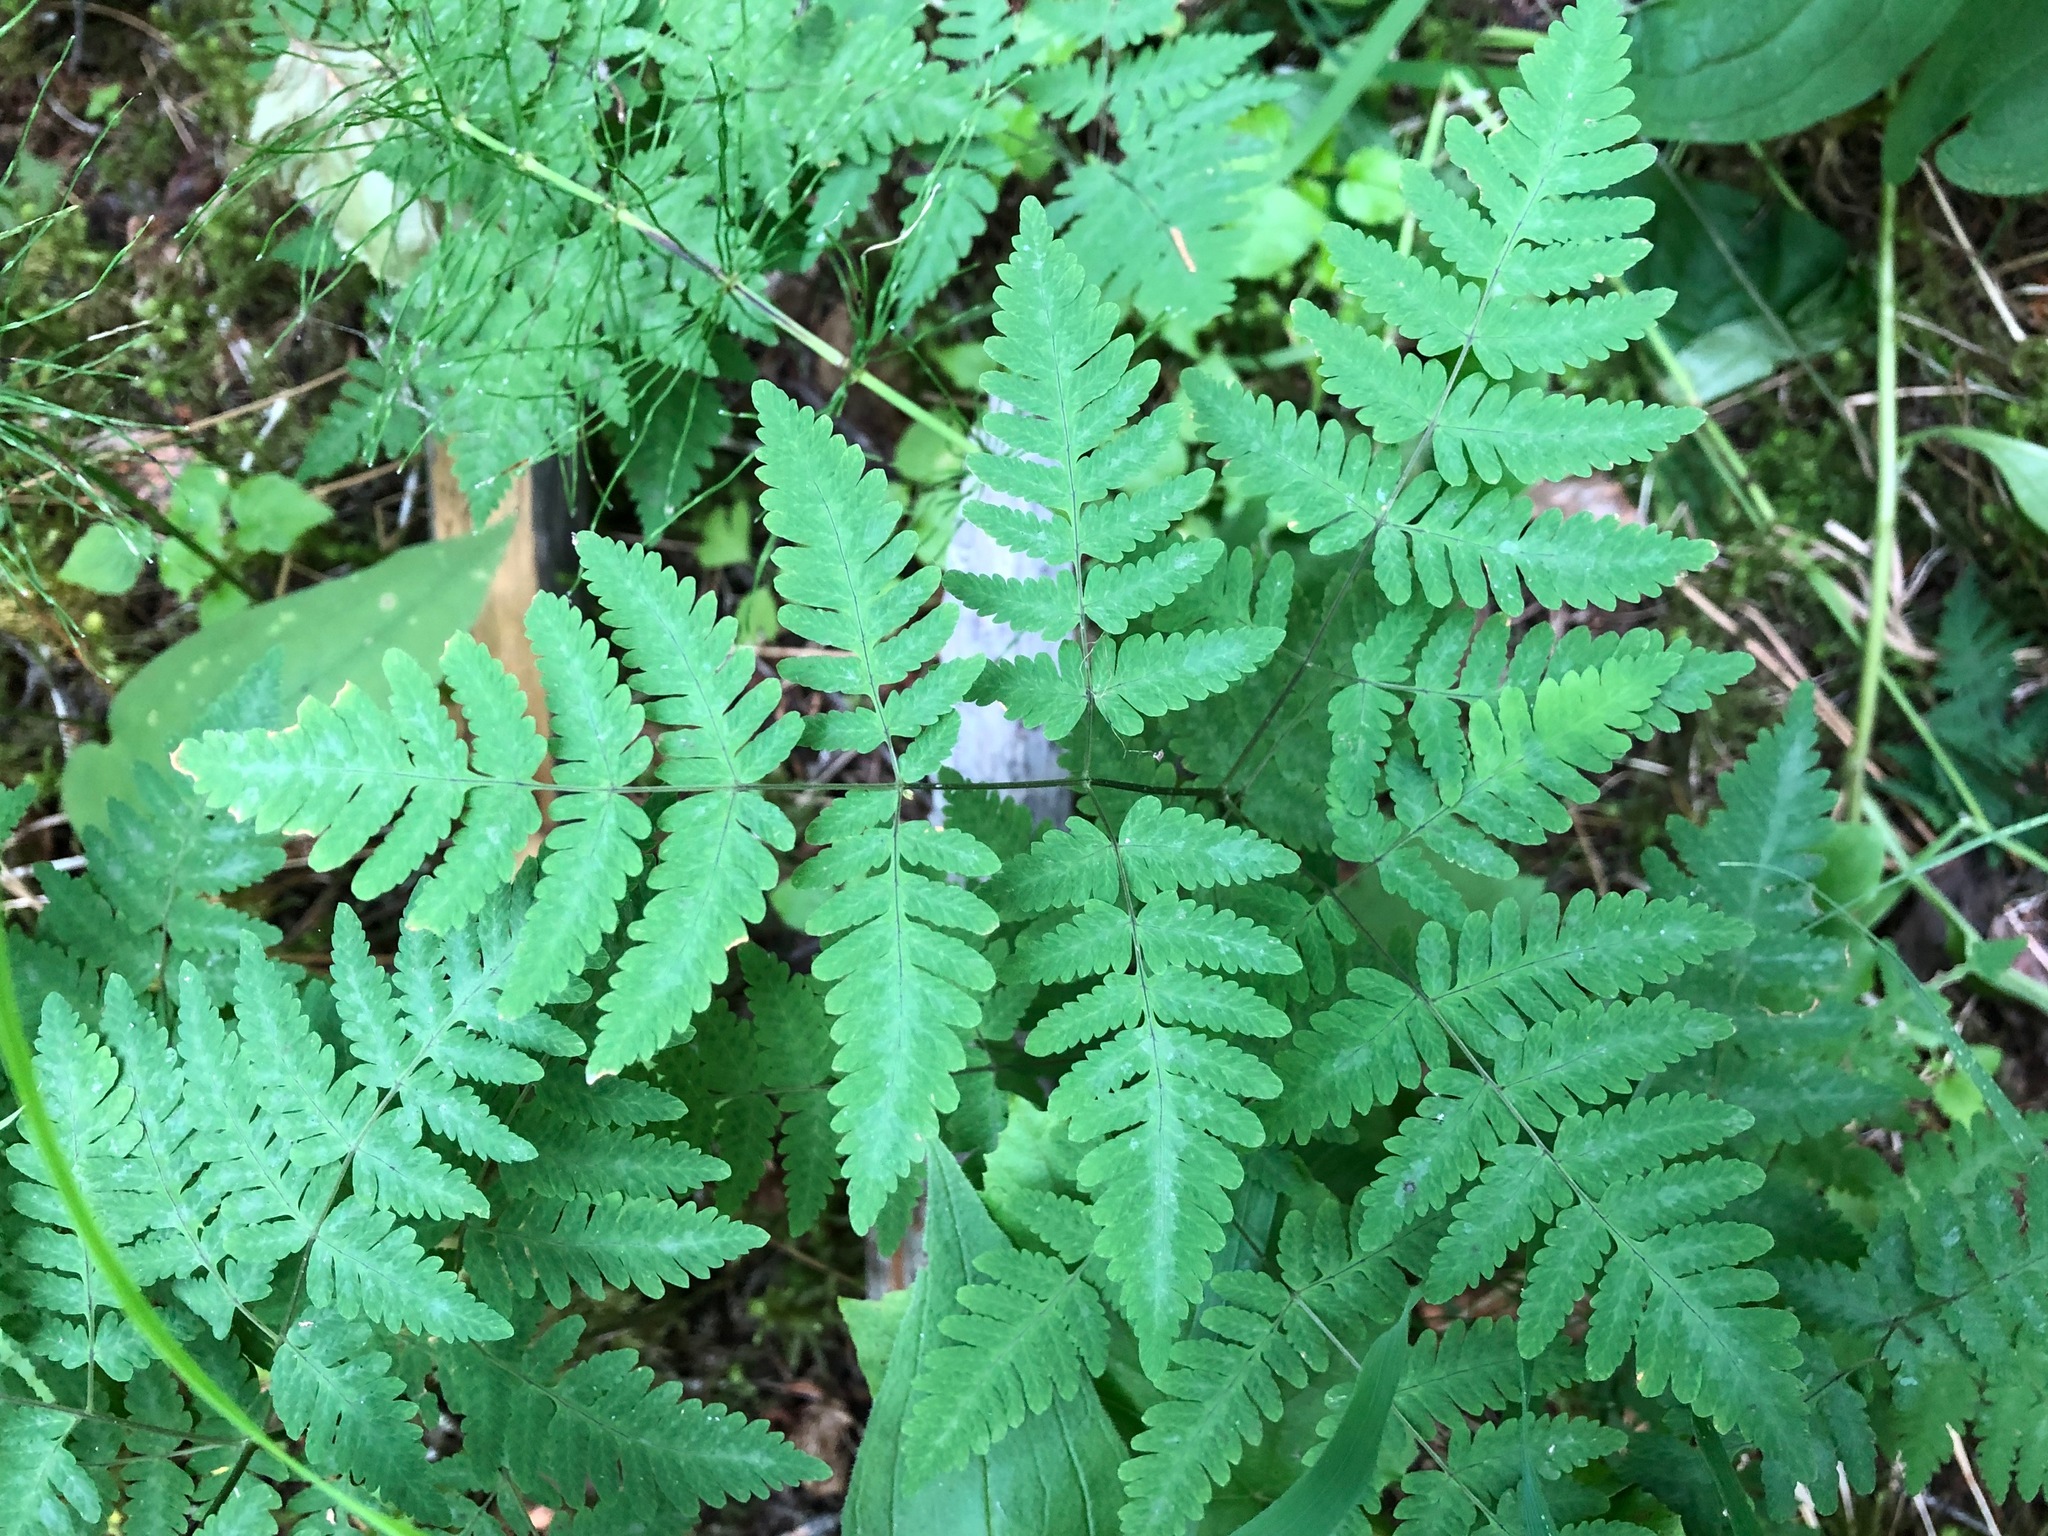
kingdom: Plantae
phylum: Tracheophyta
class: Polypodiopsida
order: Polypodiales
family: Cystopteridaceae
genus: Gymnocarpium
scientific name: Gymnocarpium dryopteris
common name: Oak fern
